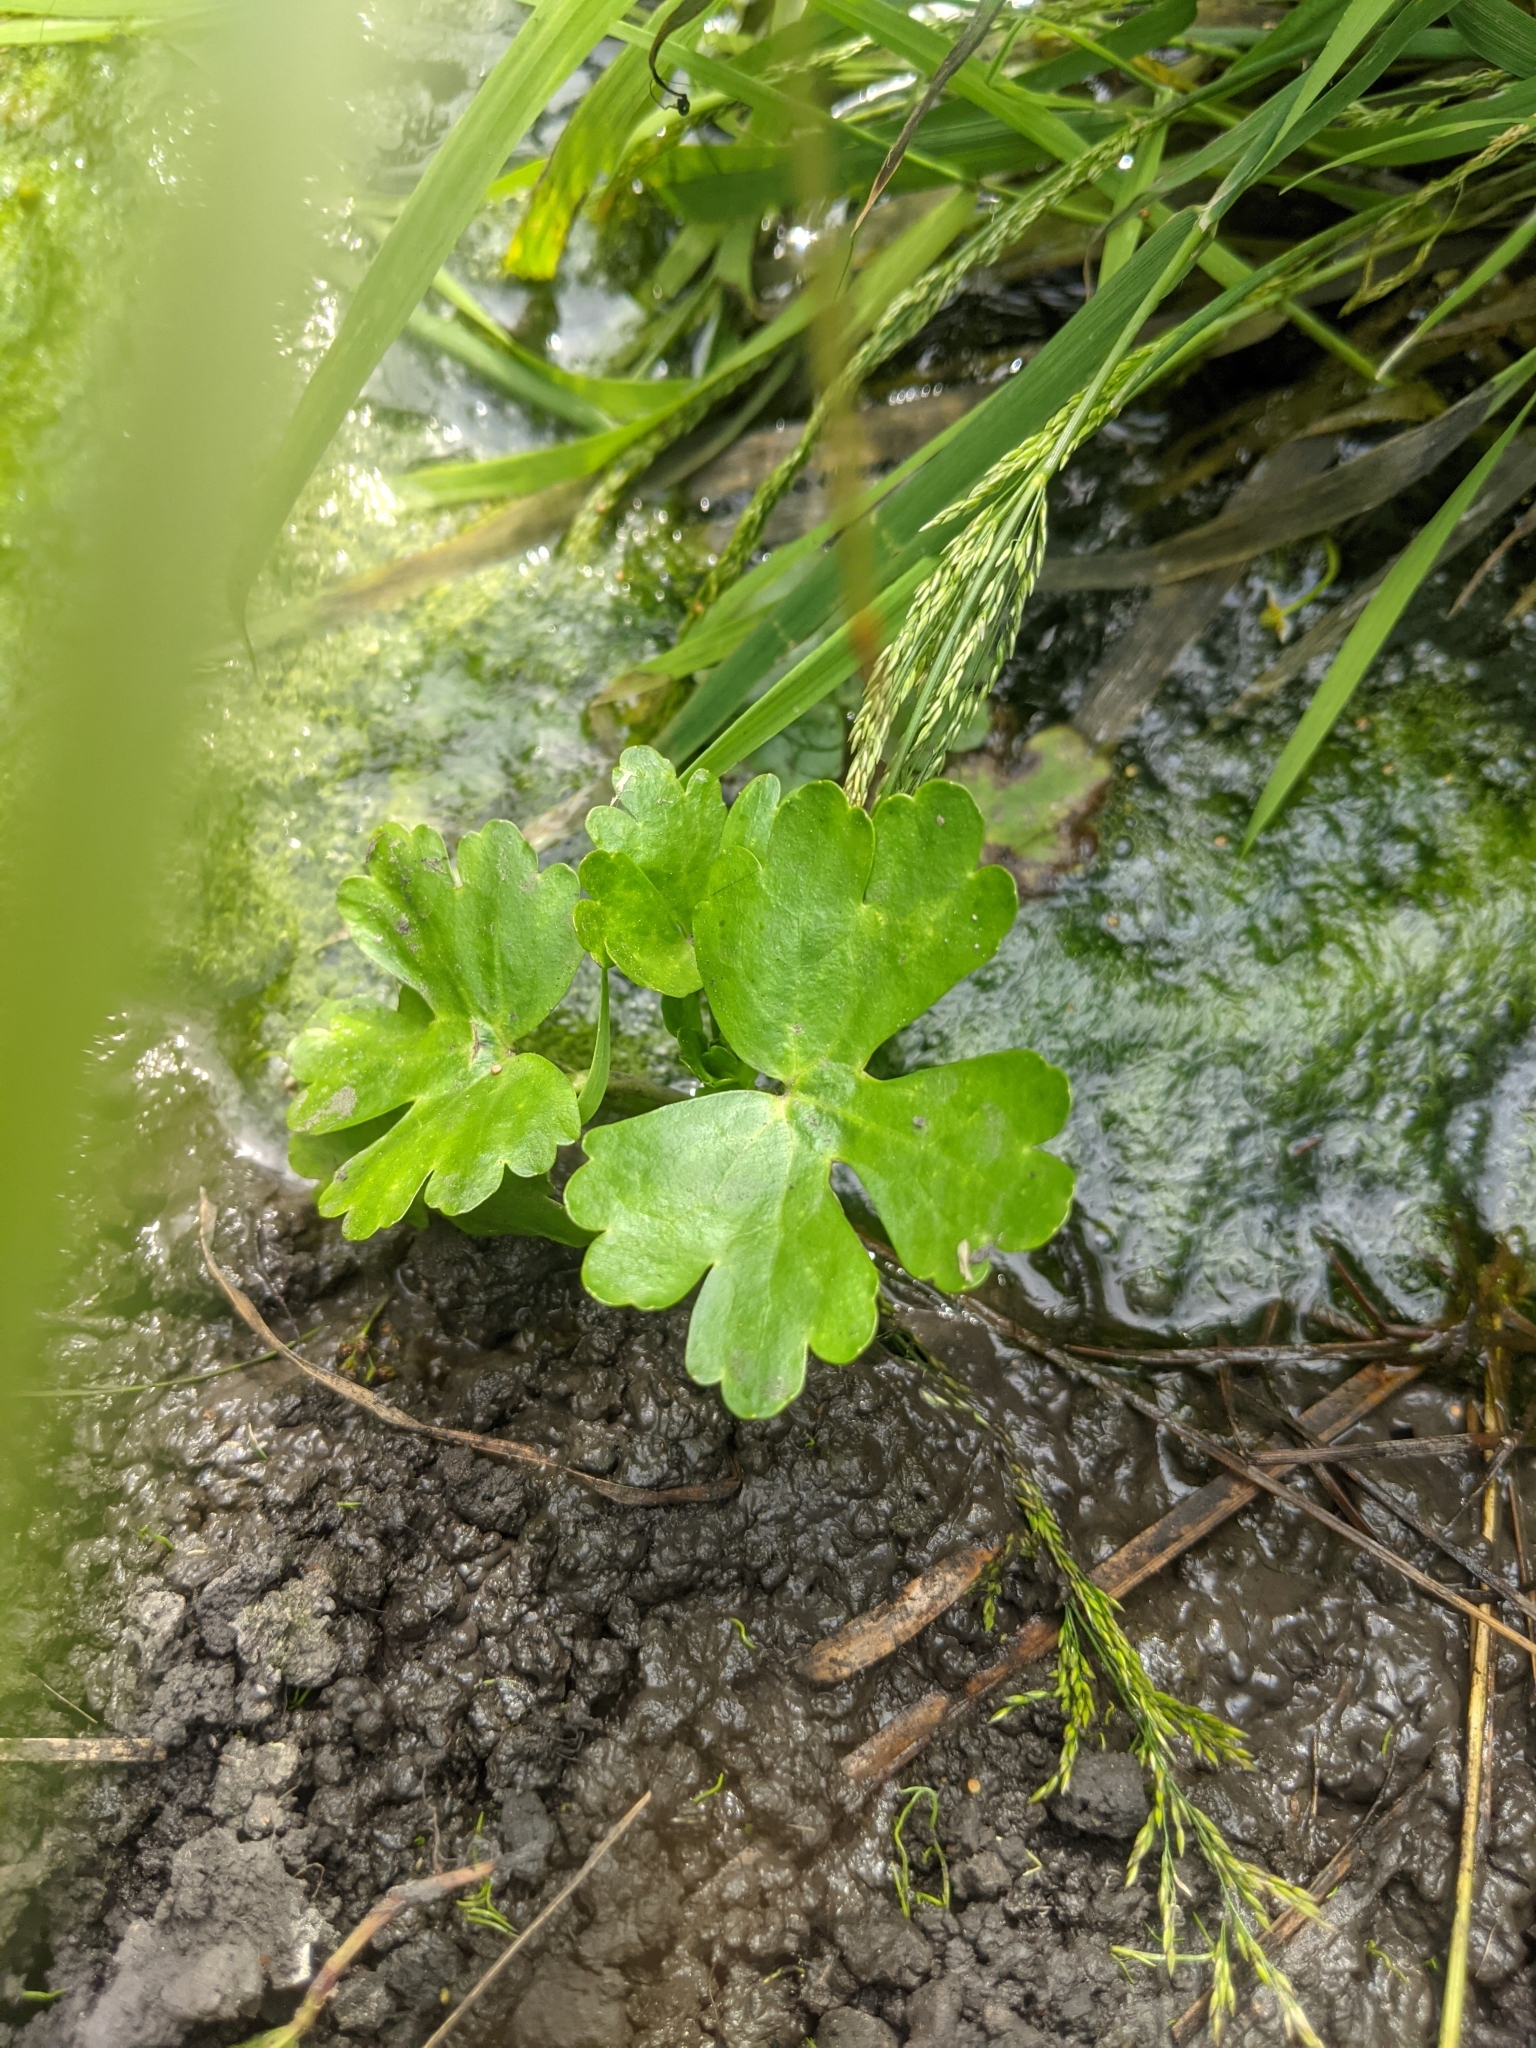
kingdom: Plantae
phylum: Tracheophyta
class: Magnoliopsida
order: Ranunculales
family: Ranunculaceae
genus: Ranunculus
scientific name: Ranunculus sceleratus
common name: Celery-leaved buttercup
